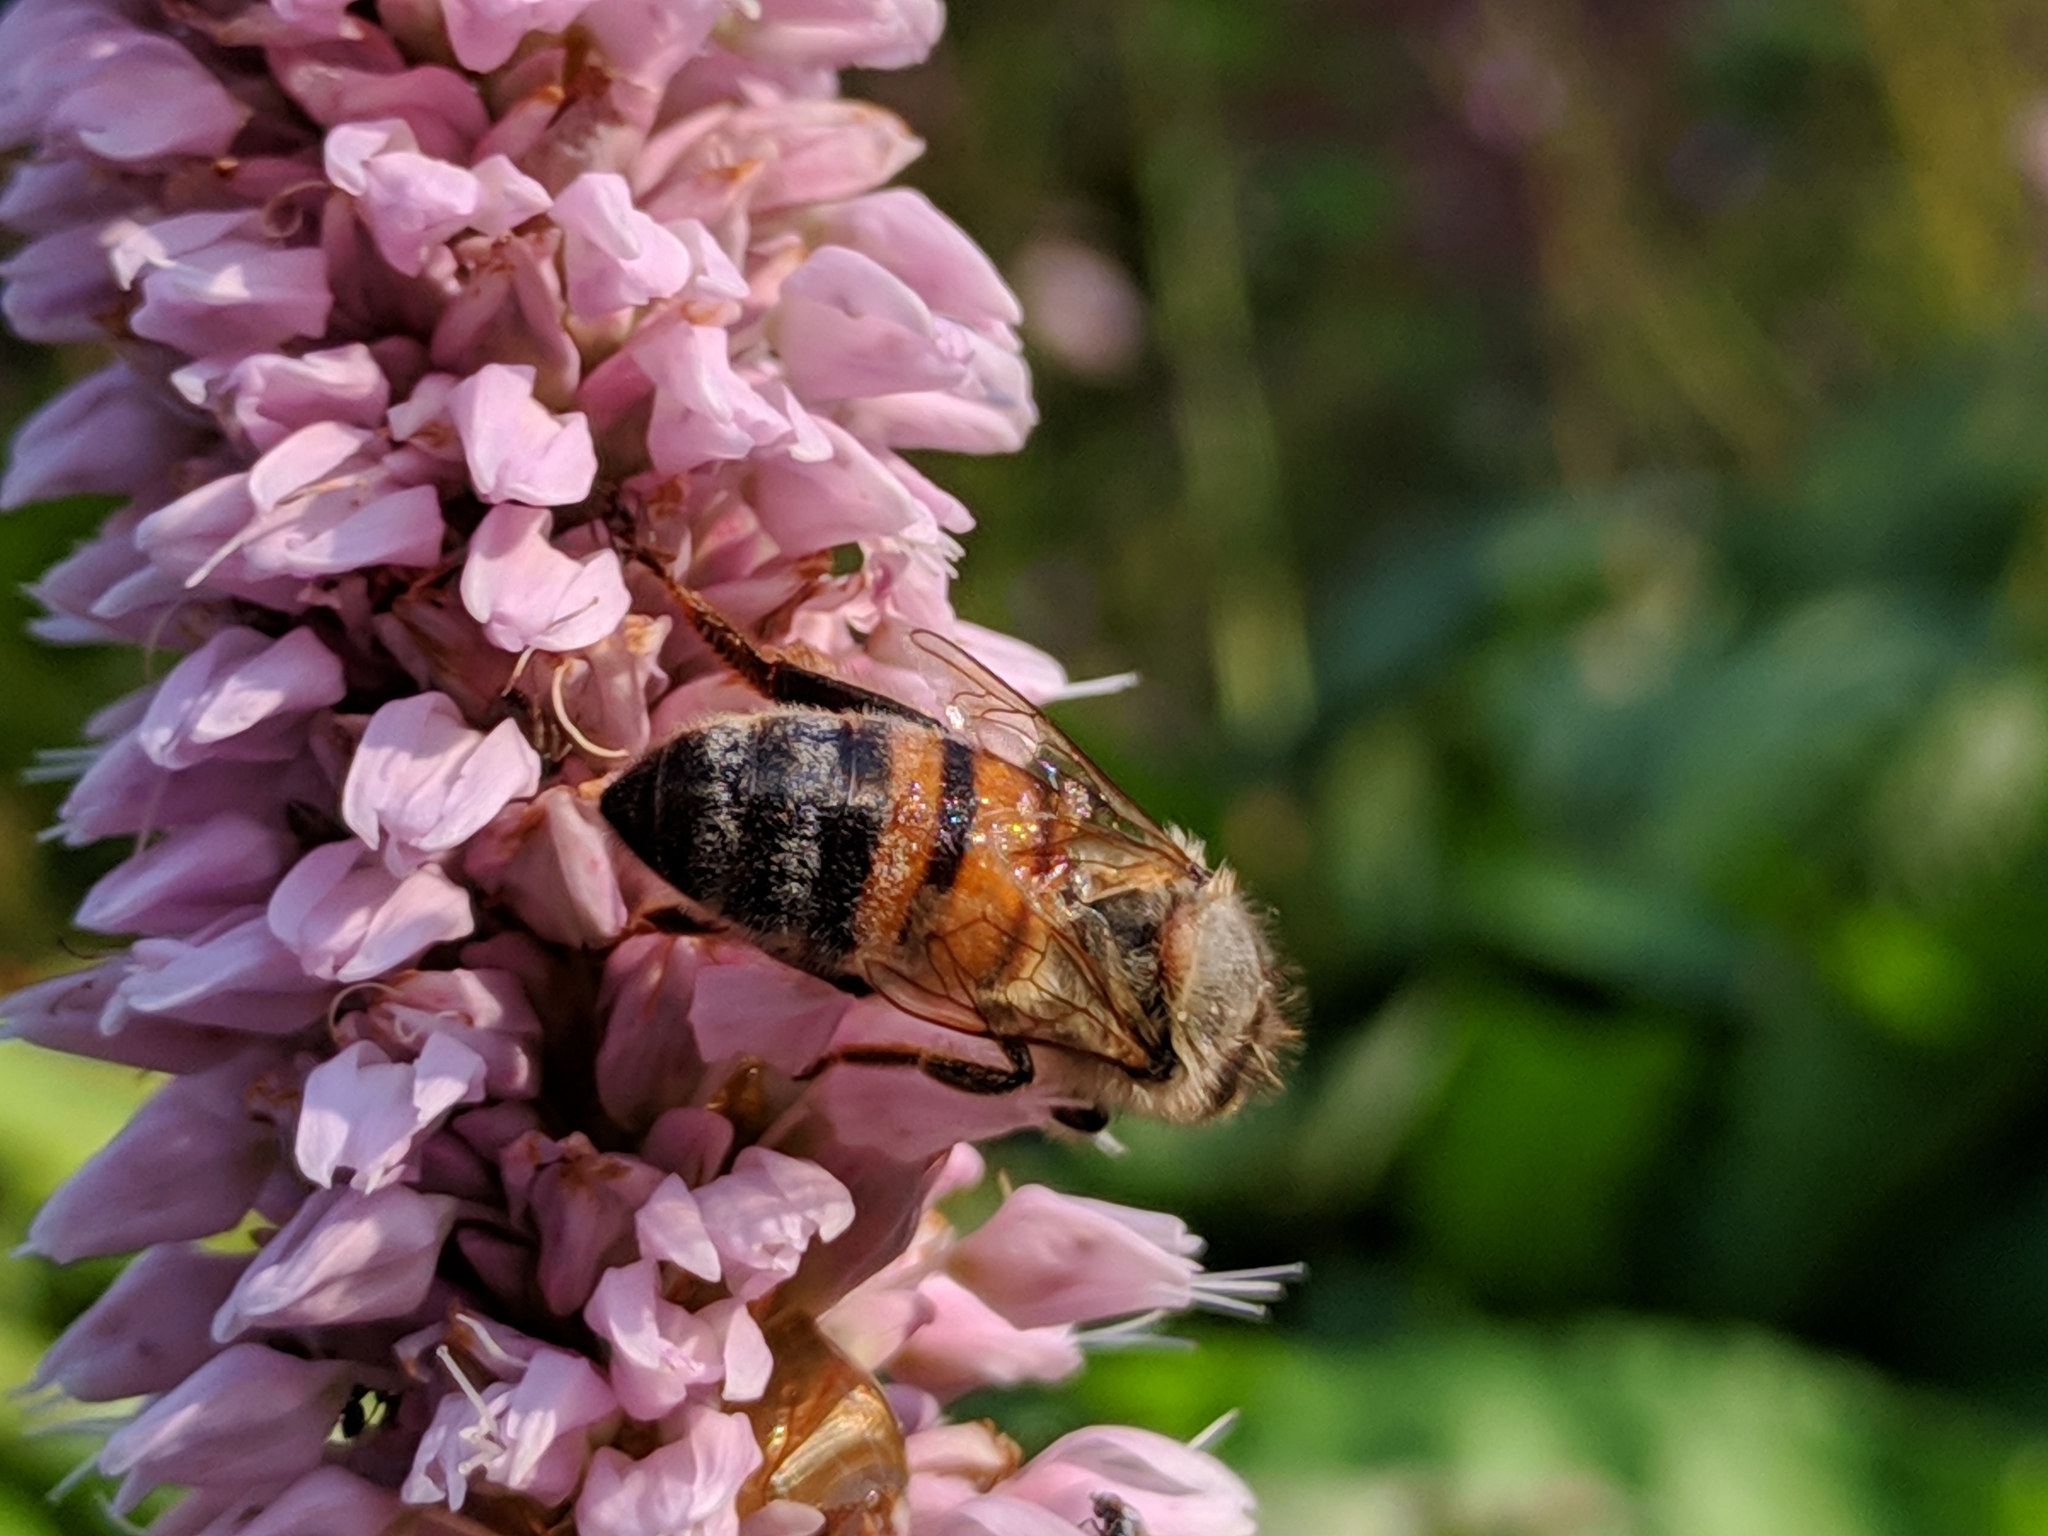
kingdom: Animalia
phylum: Arthropoda
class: Insecta
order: Hymenoptera
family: Apidae
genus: Apis
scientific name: Apis mellifera
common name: Honey bee
